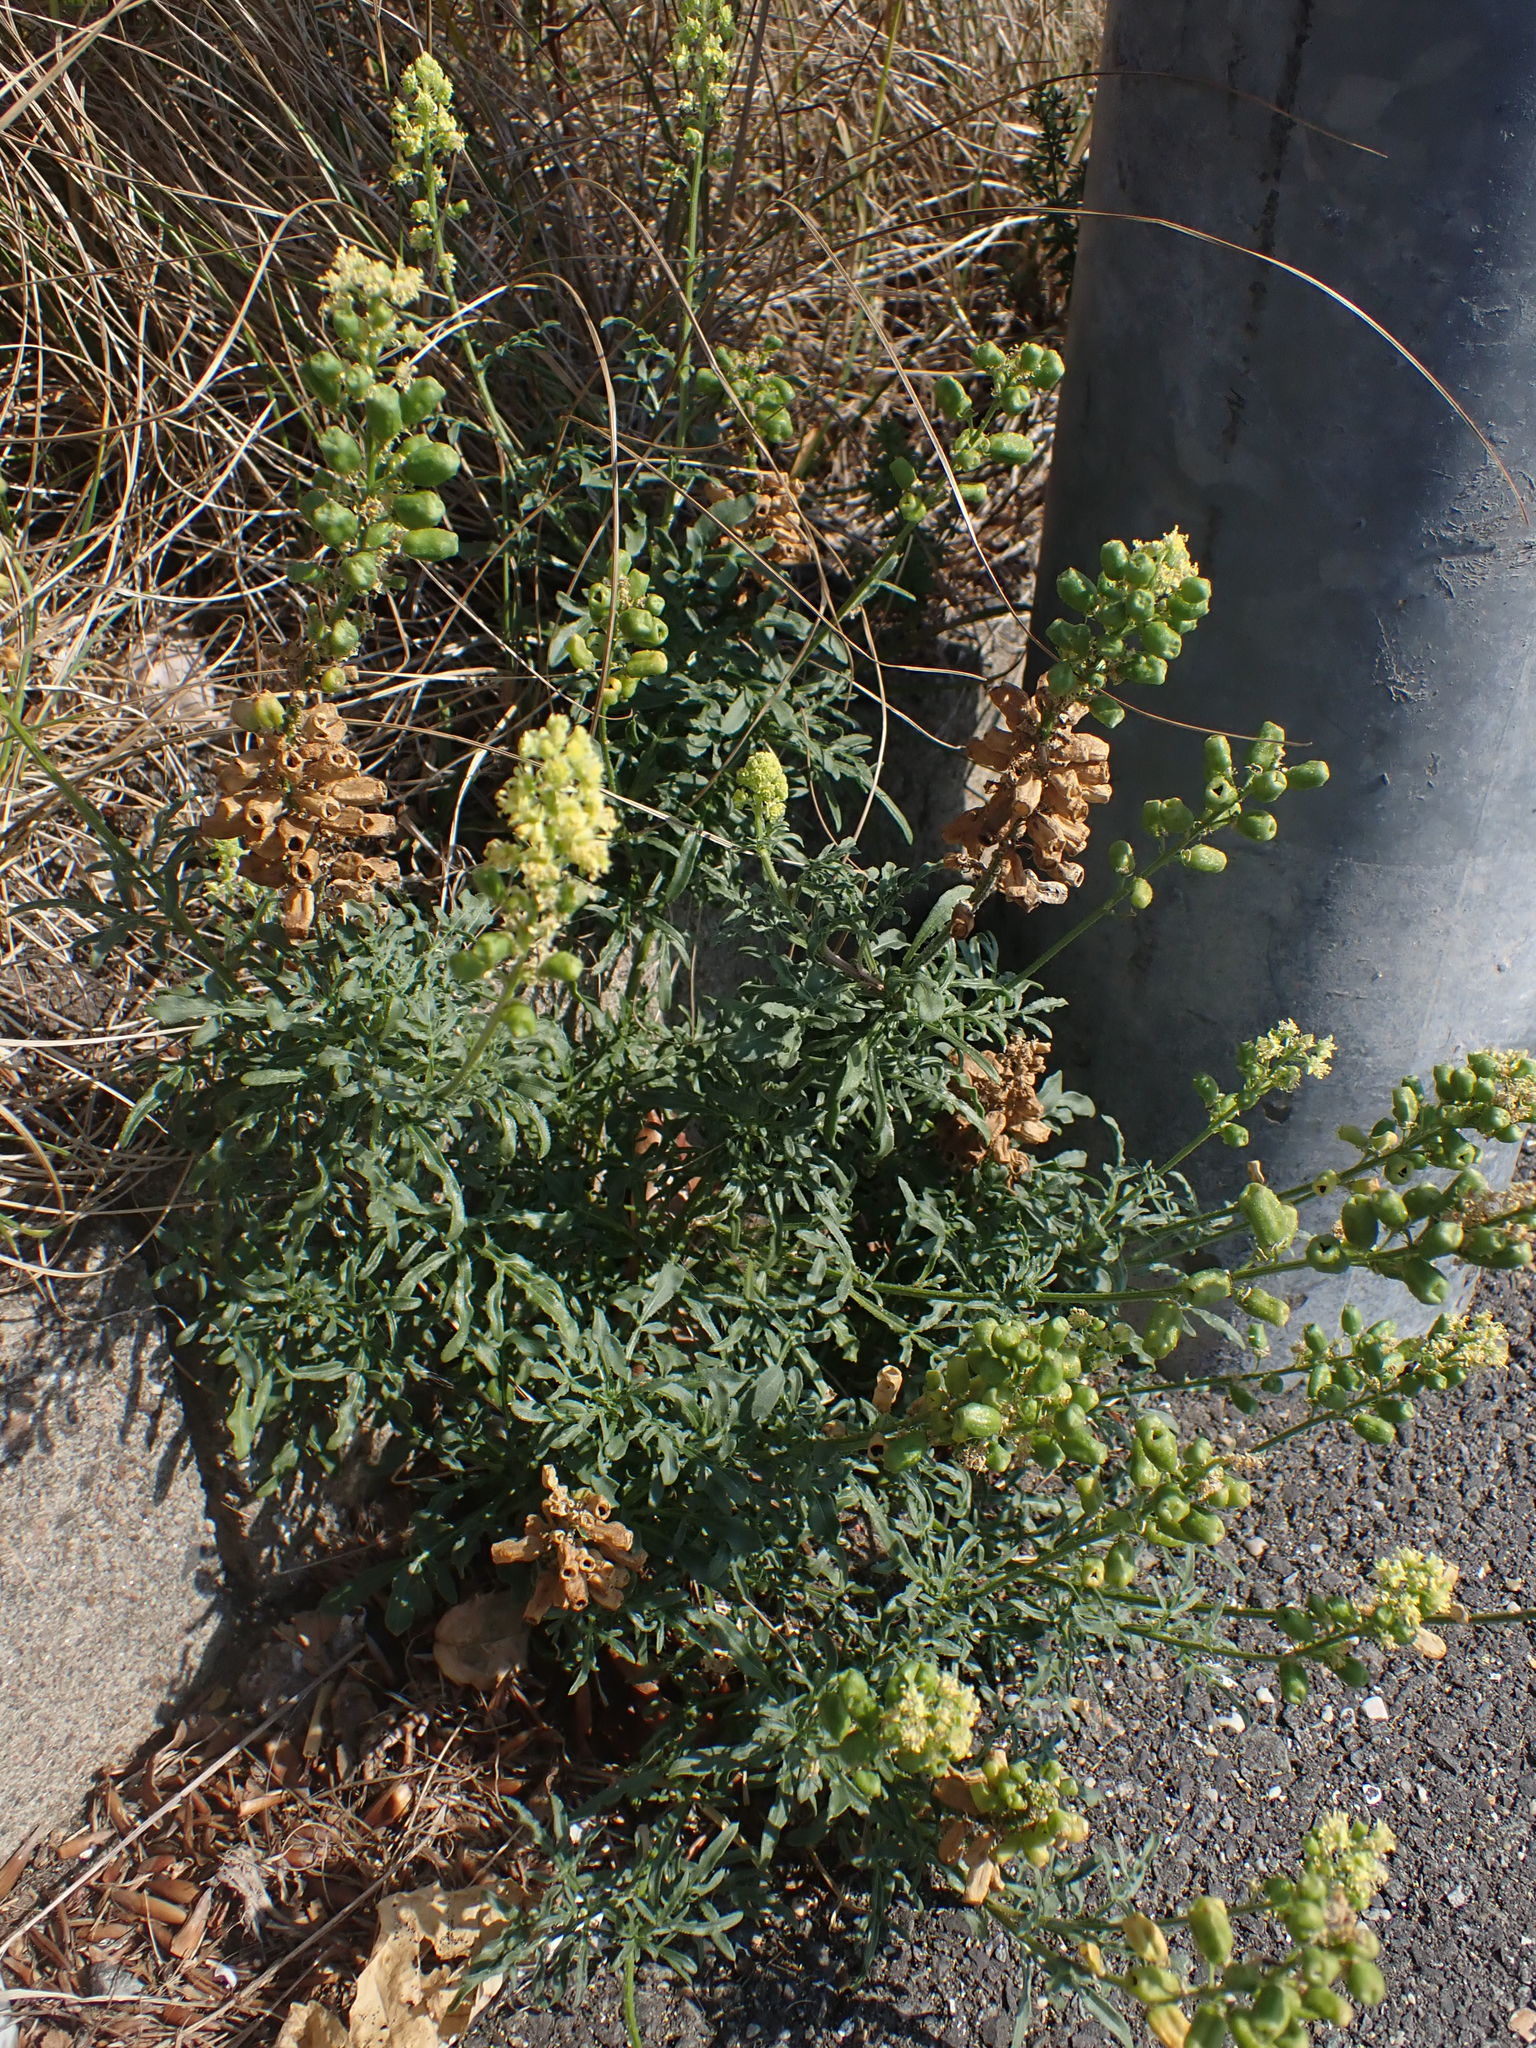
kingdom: Plantae
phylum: Tracheophyta
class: Magnoliopsida
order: Brassicales
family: Resedaceae
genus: Reseda
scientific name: Reseda lutea
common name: Wild mignonette
